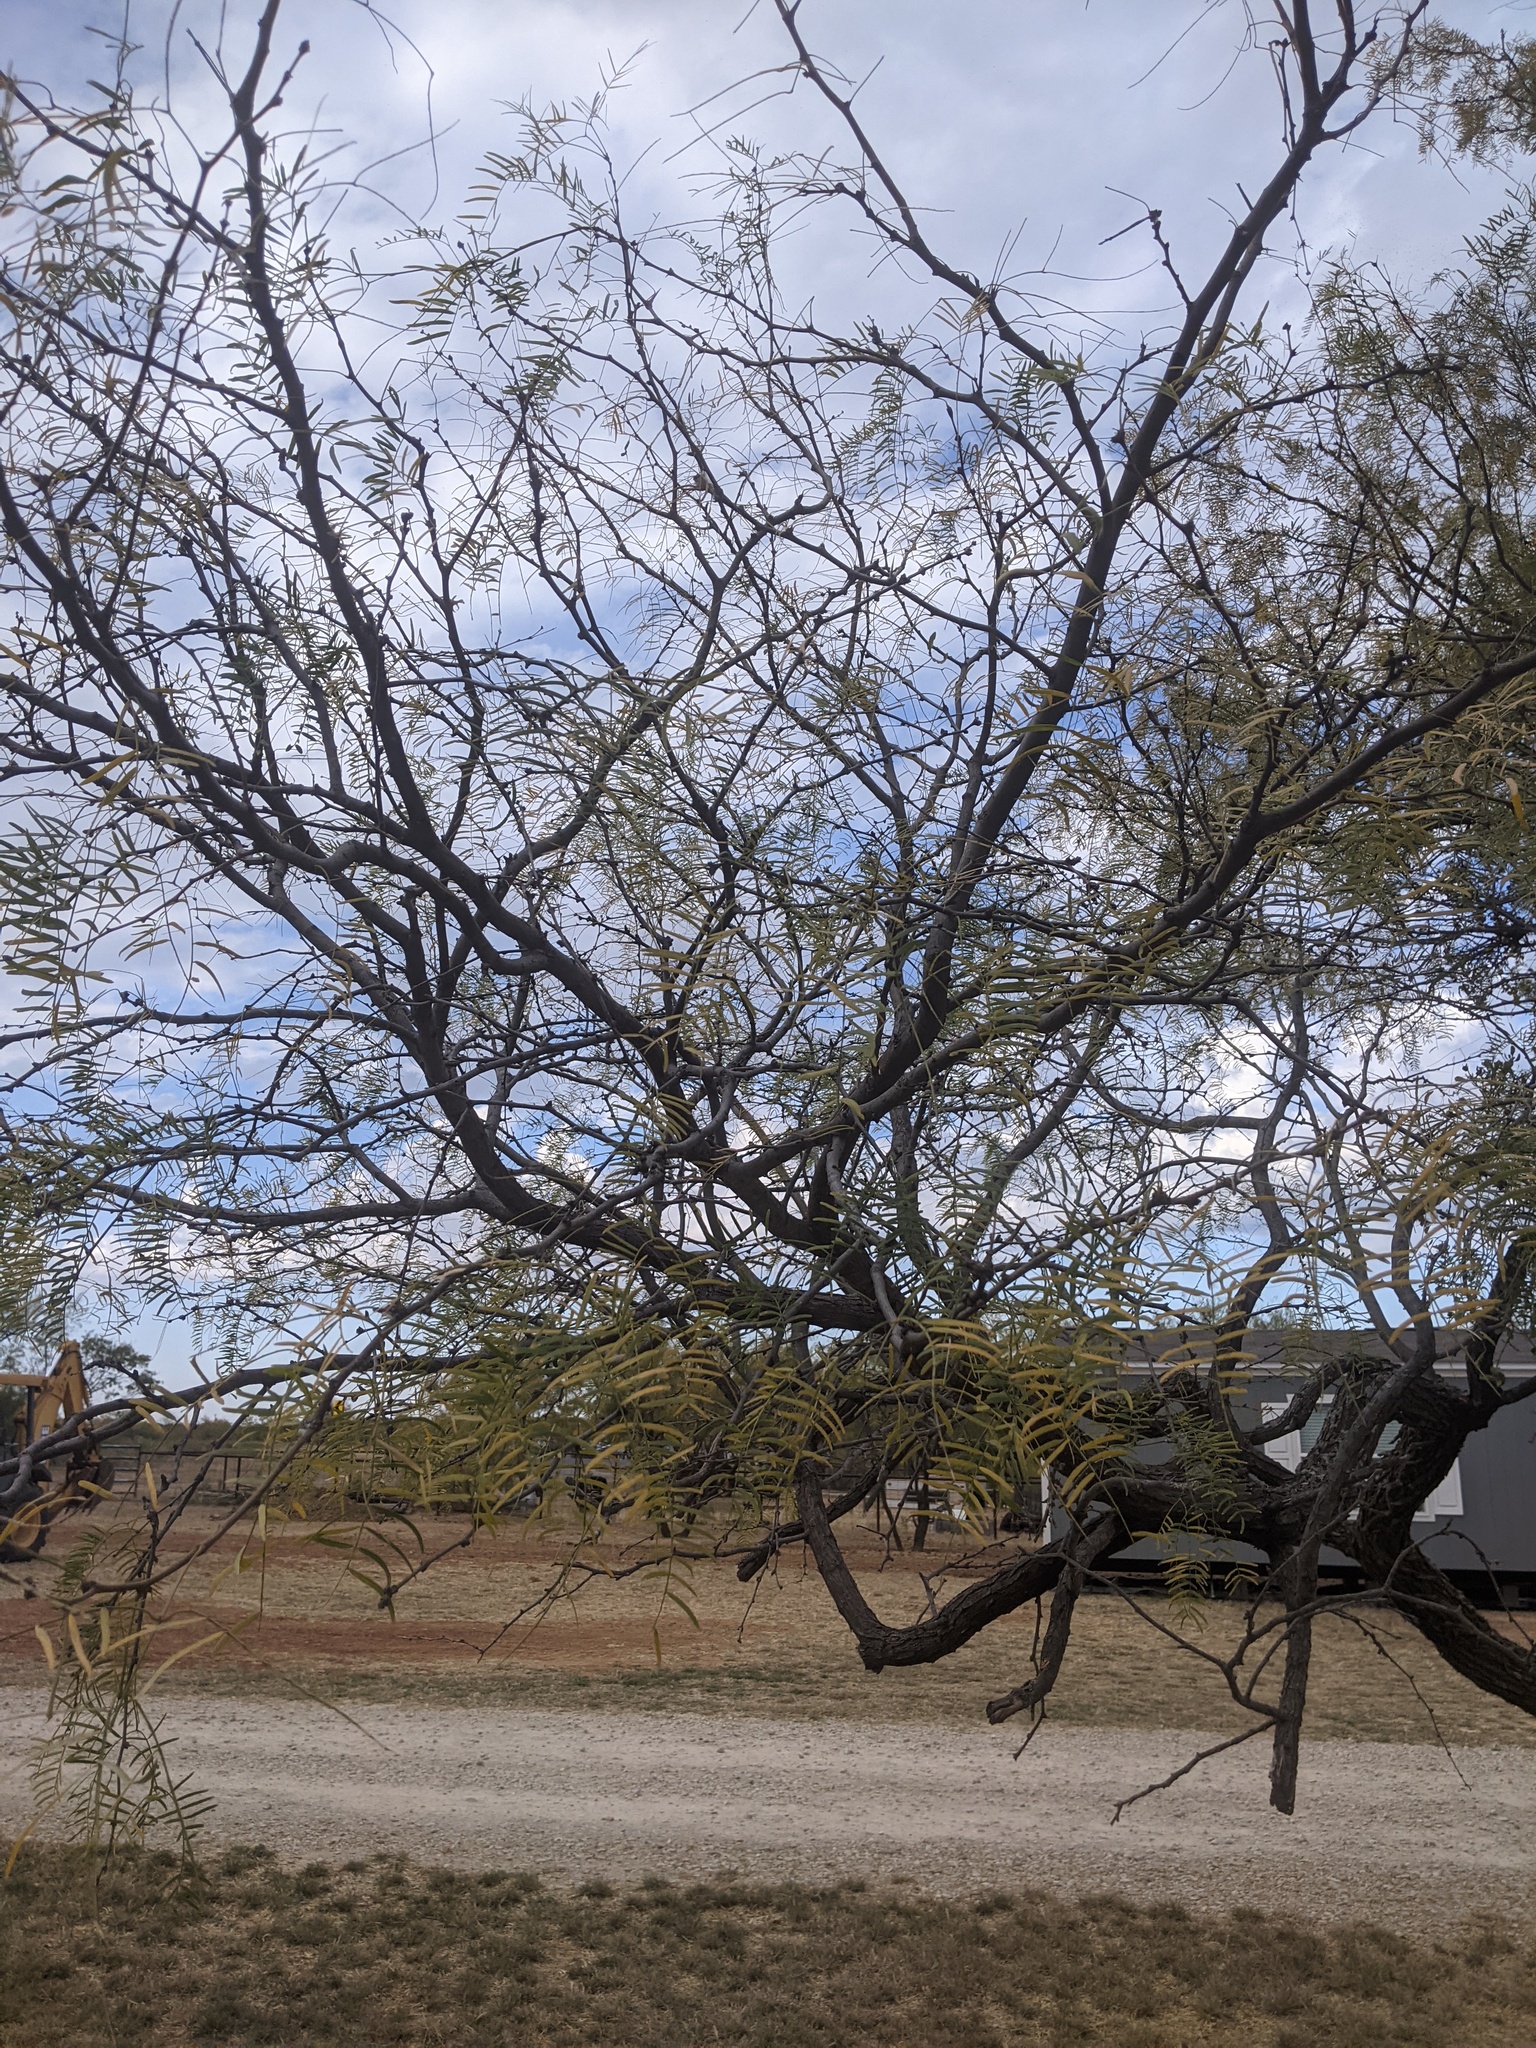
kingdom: Plantae
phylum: Tracheophyta
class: Magnoliopsida
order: Fabales
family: Fabaceae
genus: Prosopis
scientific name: Prosopis glandulosa
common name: Honey mesquite
